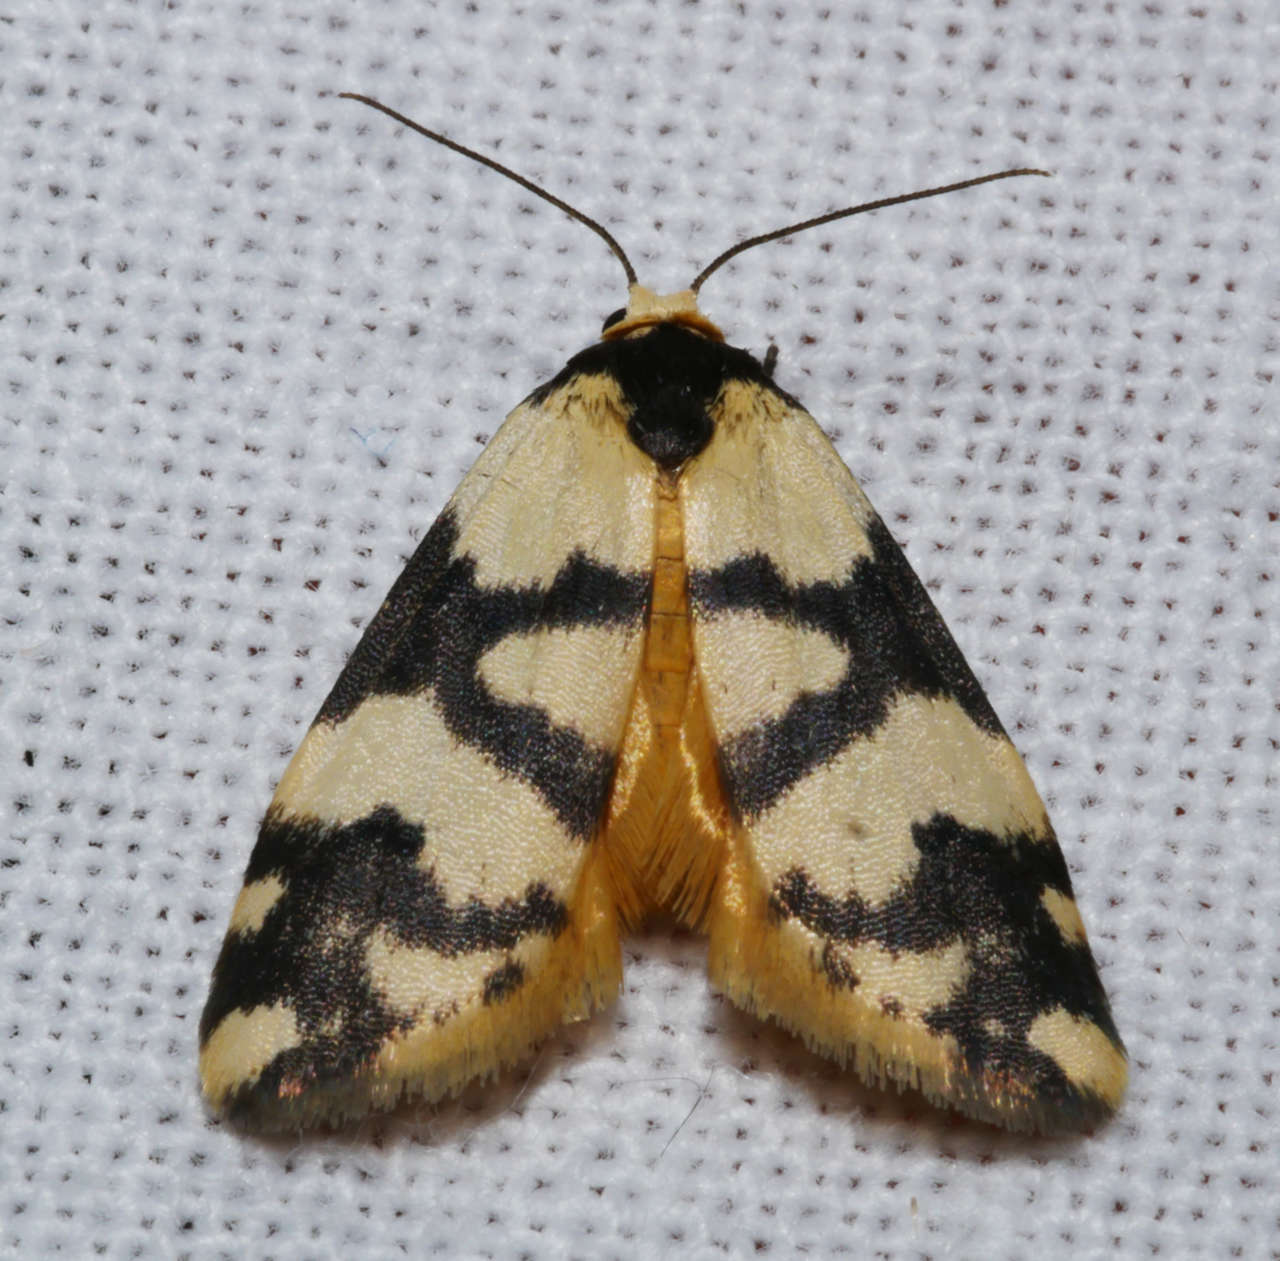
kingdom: Animalia
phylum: Arthropoda
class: Insecta
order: Lepidoptera
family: Erebidae
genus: Thallarcha
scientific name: Thallarcha trissomochla
